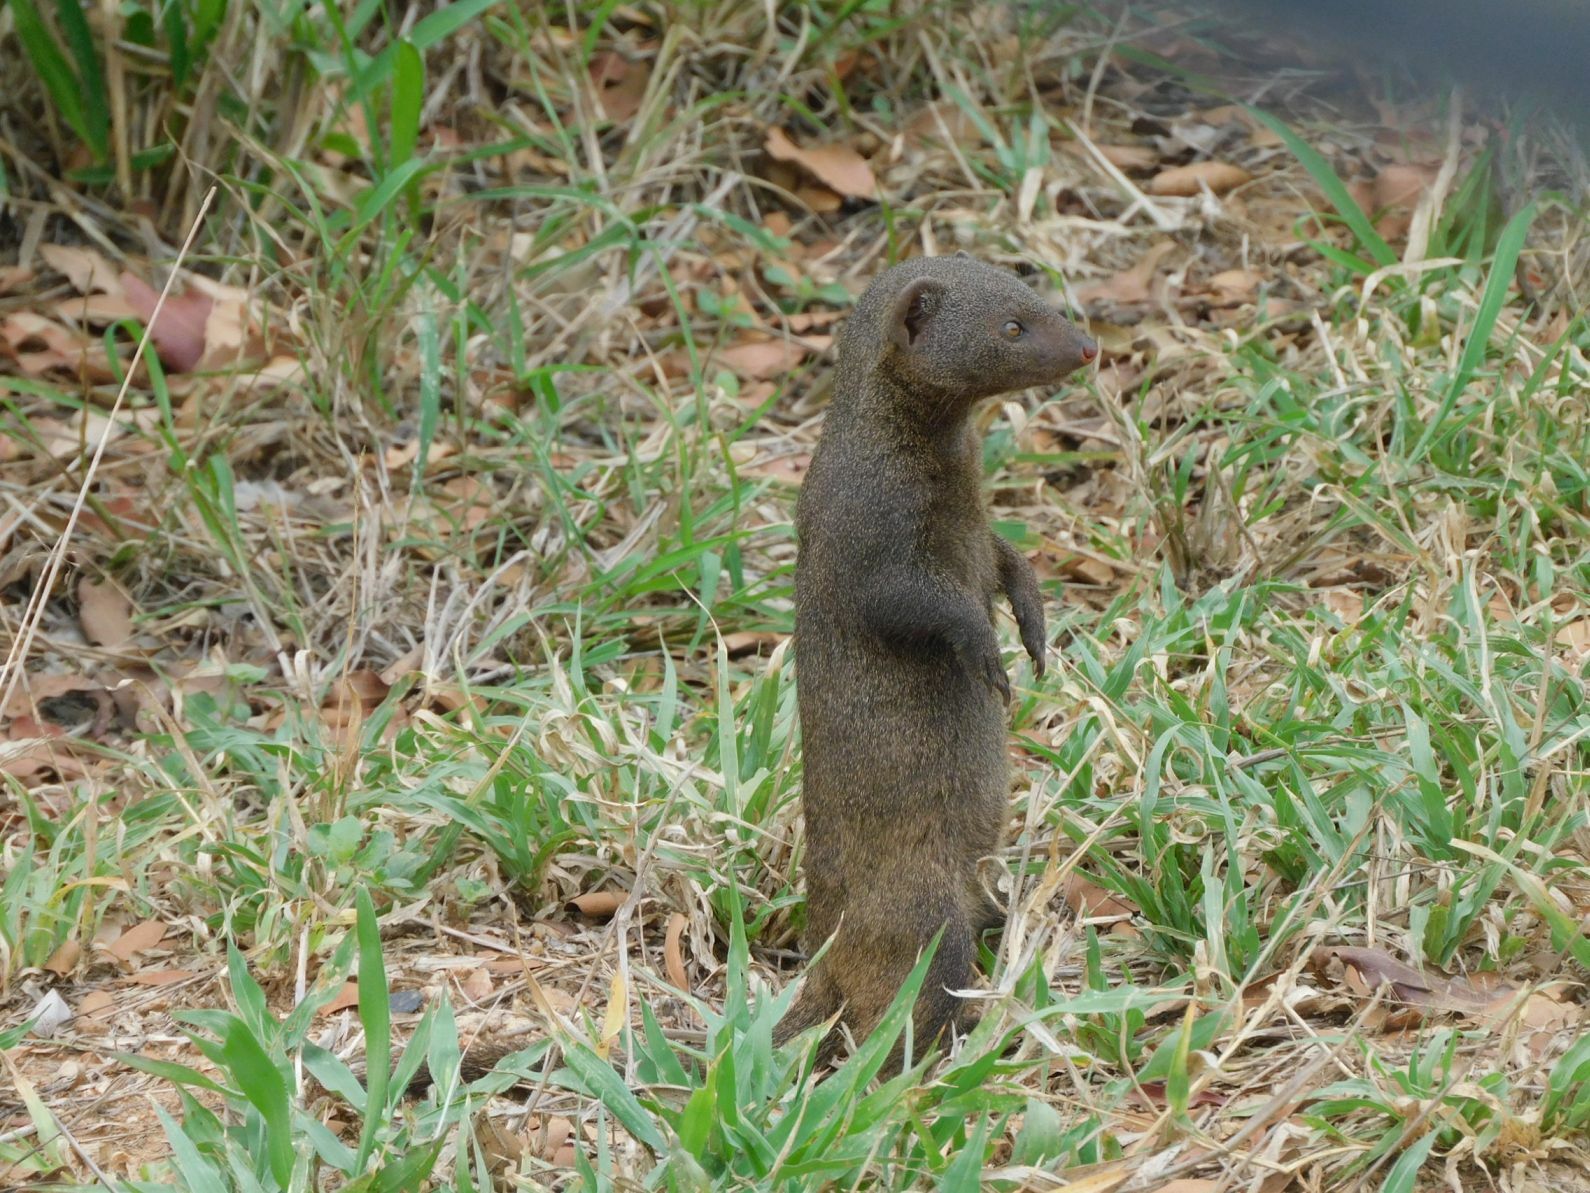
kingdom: Animalia
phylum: Chordata
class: Mammalia
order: Carnivora
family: Herpestidae
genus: Helogale
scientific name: Helogale parvula
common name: Common dwarf mongoose
